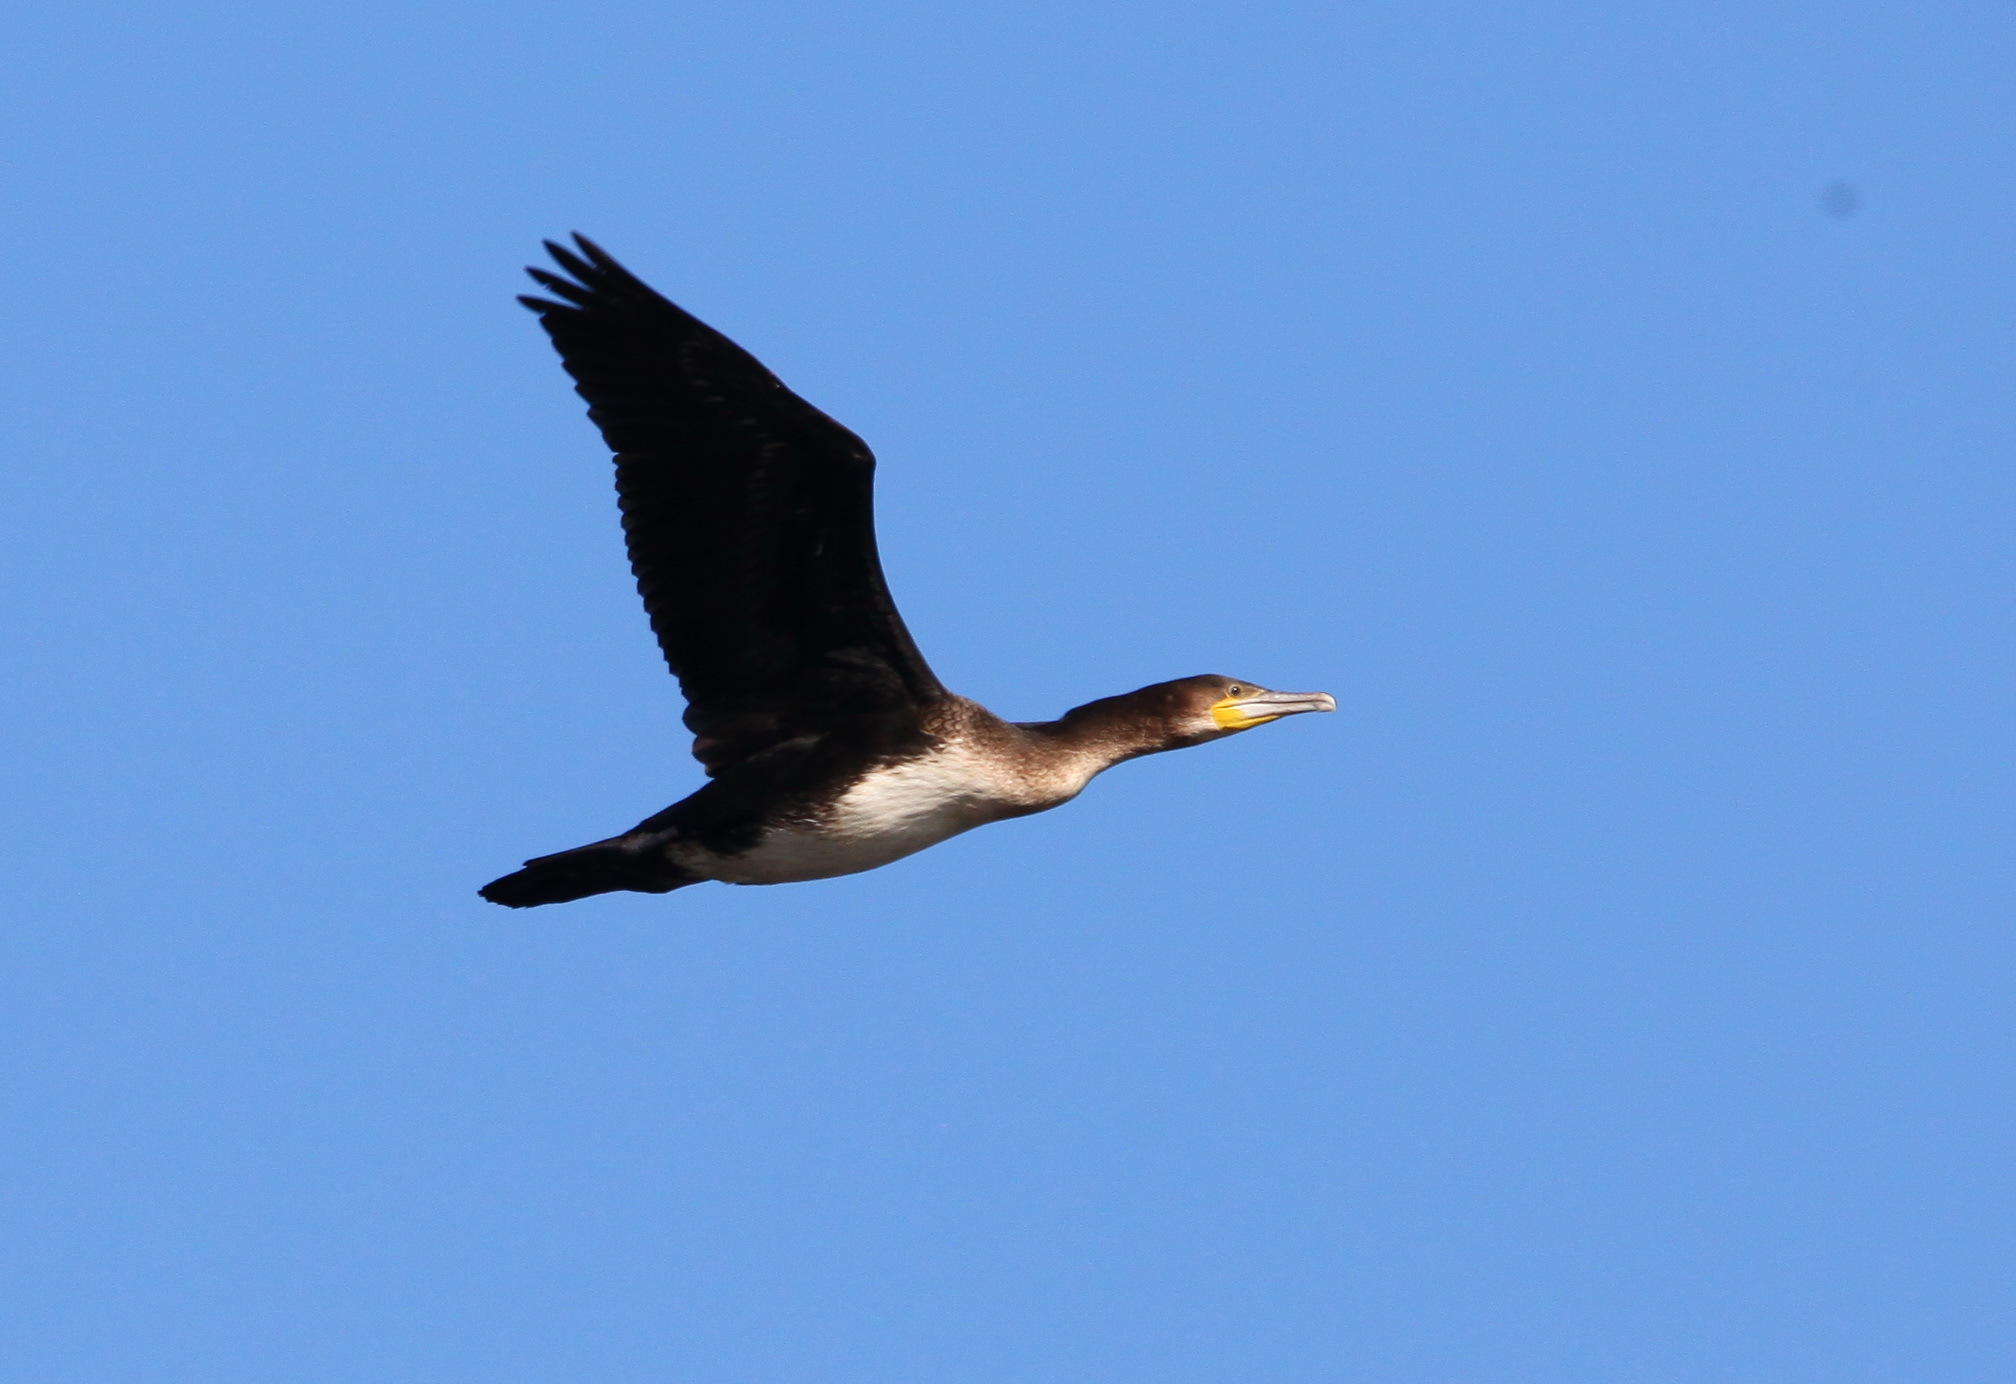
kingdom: Animalia
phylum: Chordata
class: Aves
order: Suliformes
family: Phalacrocoracidae
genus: Phalacrocorax
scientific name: Phalacrocorax carbo
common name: Great cormorant
